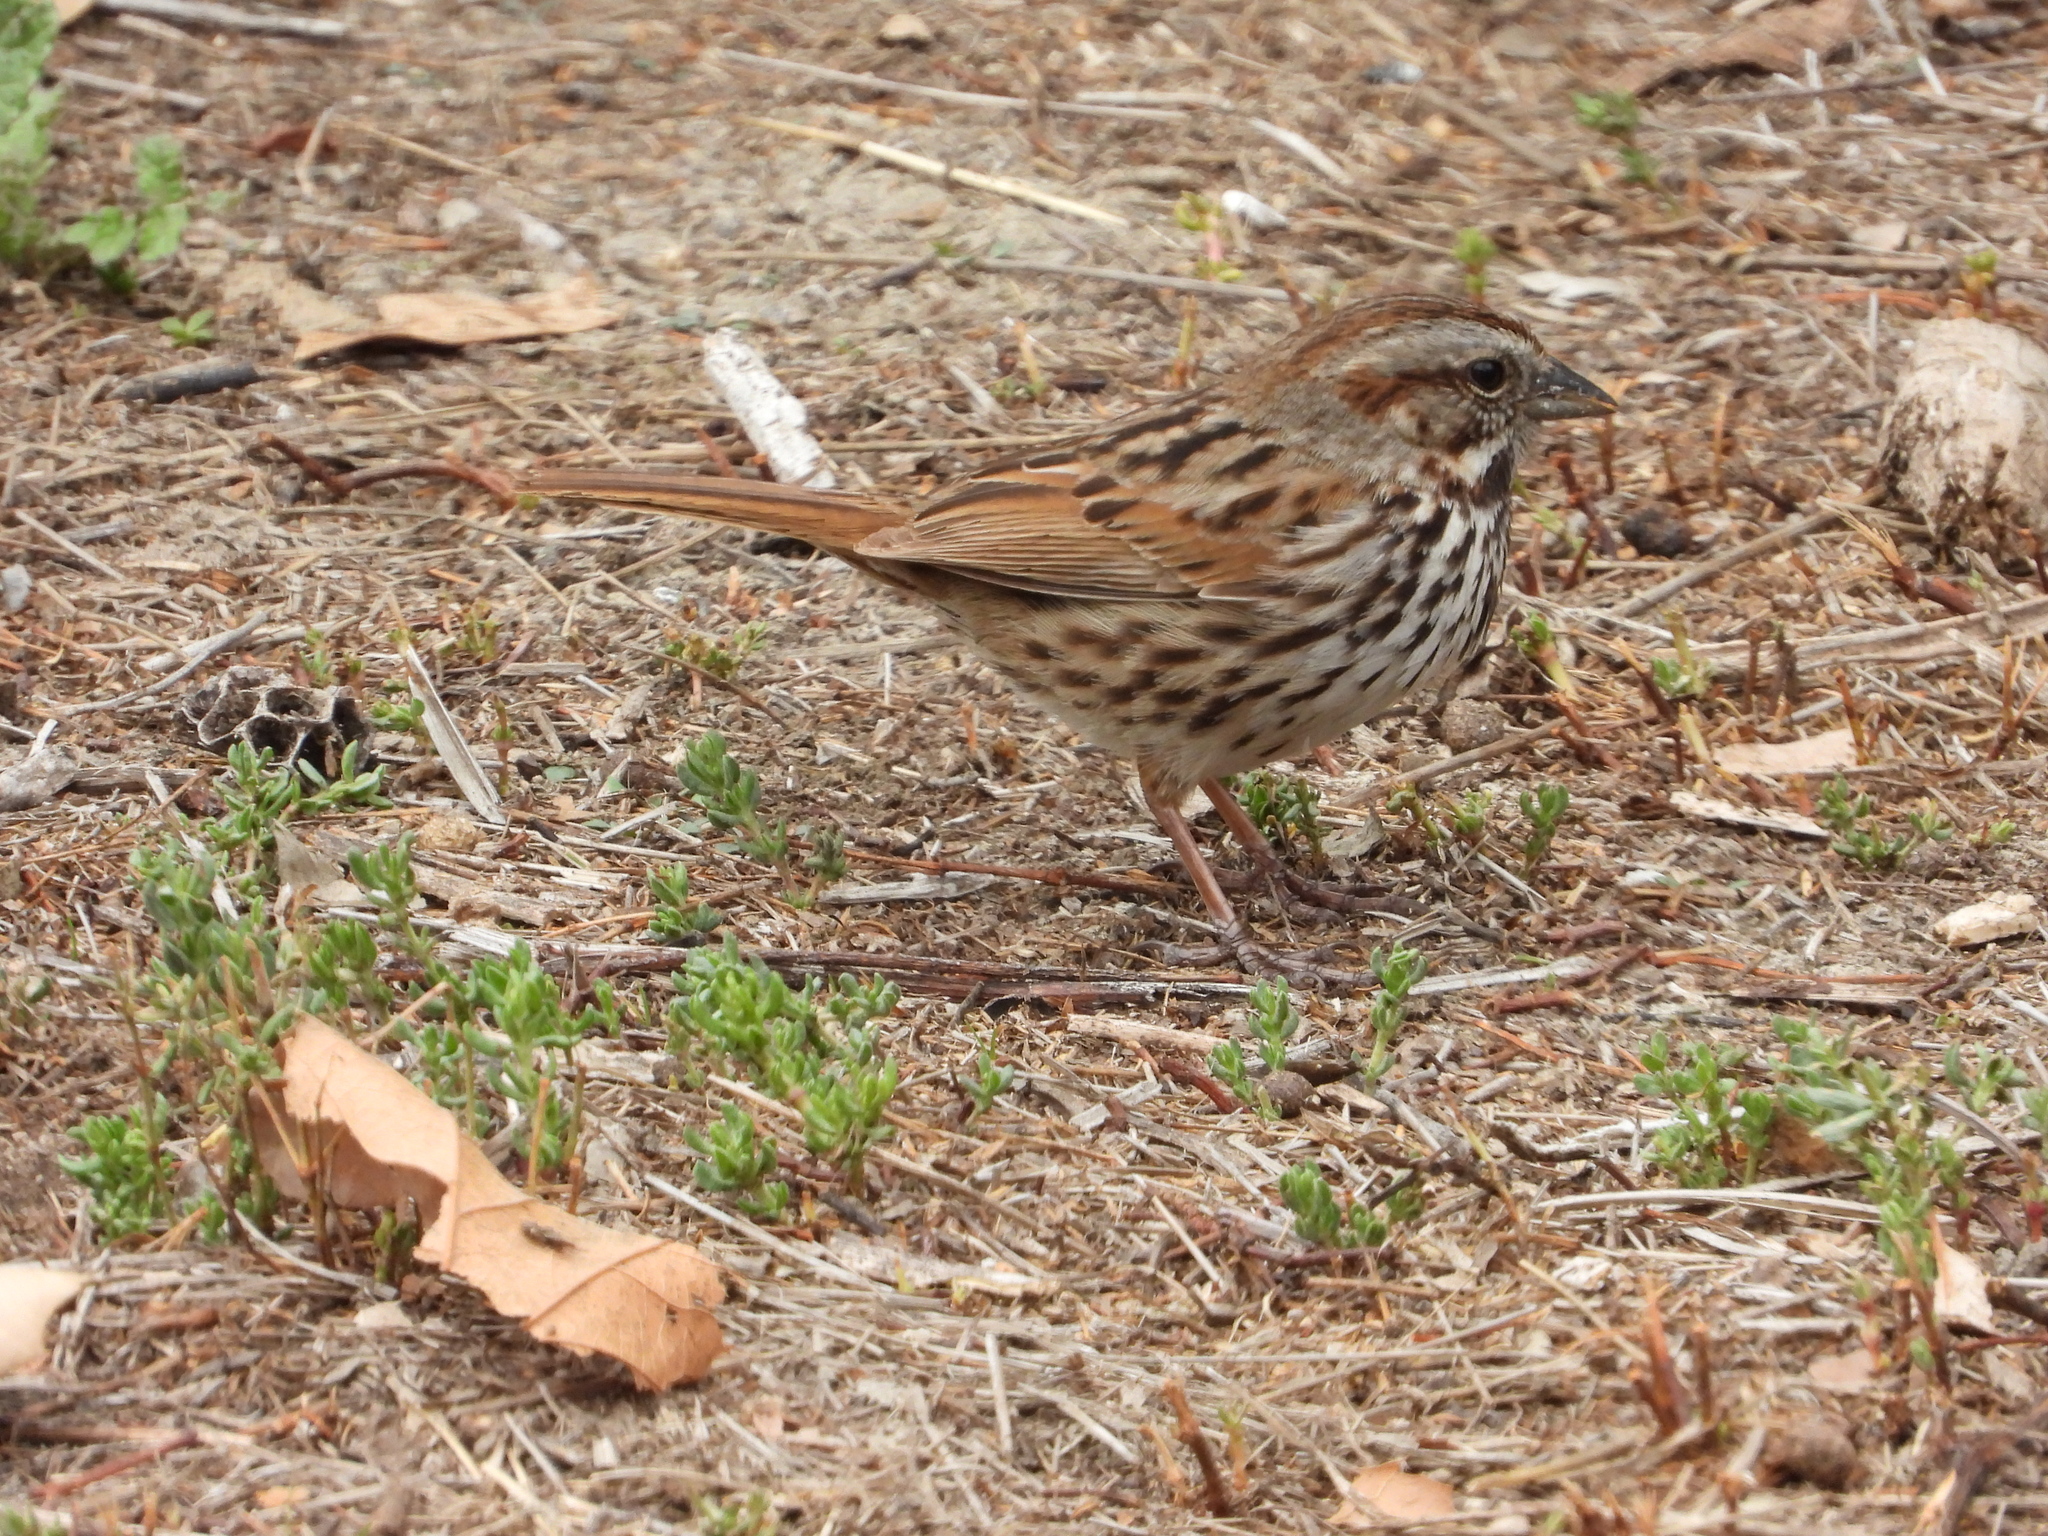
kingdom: Animalia
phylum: Chordata
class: Aves
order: Passeriformes
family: Passerellidae
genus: Melospiza
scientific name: Melospiza melodia
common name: Song sparrow
